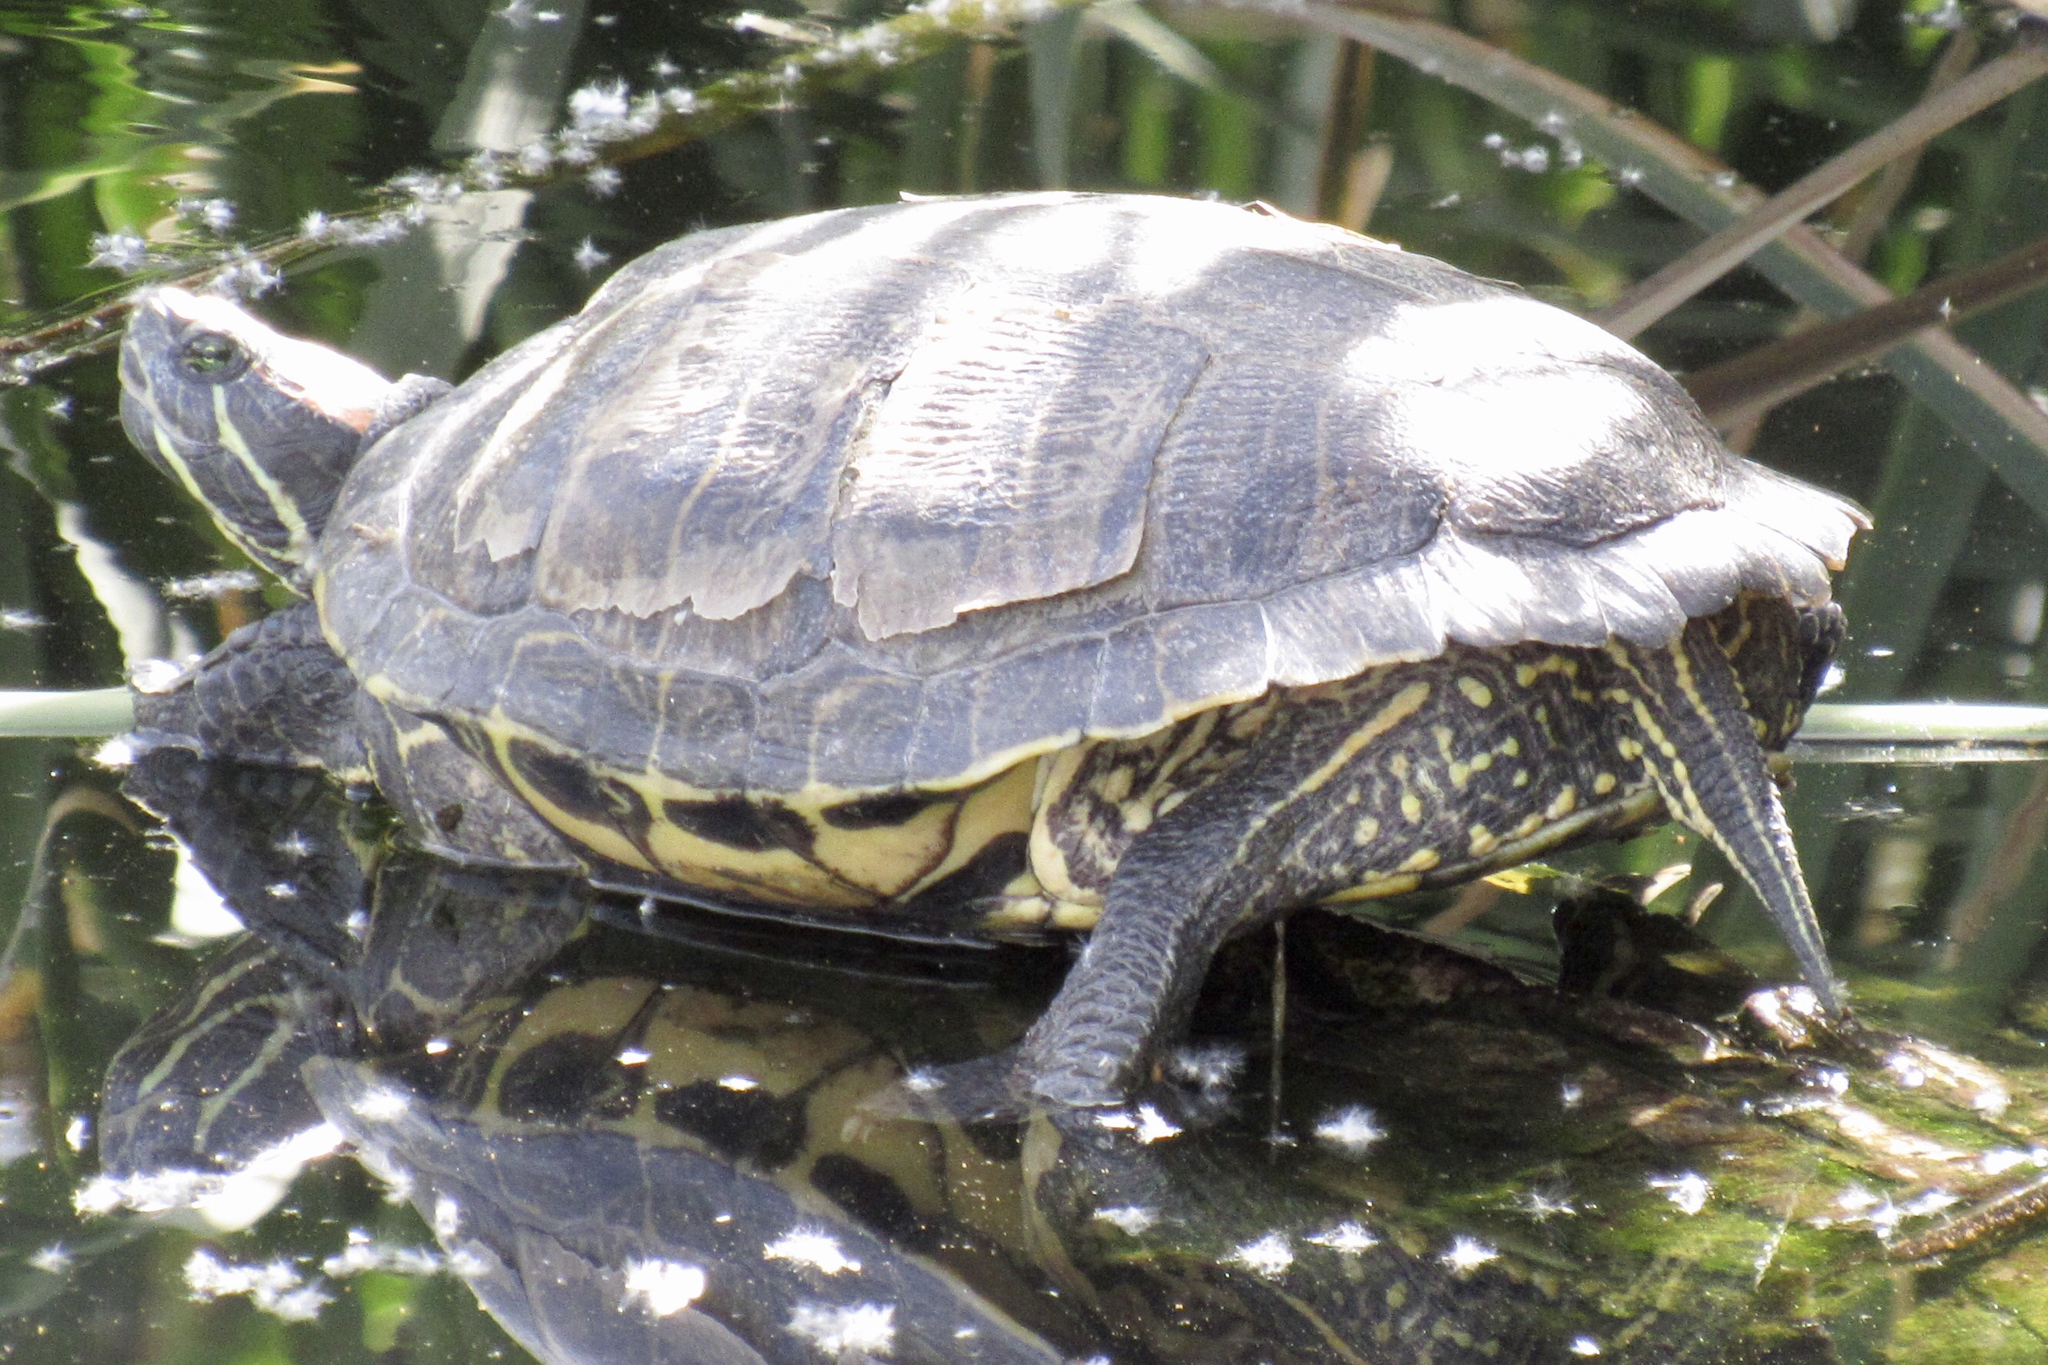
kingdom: Animalia
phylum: Chordata
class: Testudines
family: Emydidae
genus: Trachemys
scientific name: Trachemys scripta
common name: Slider
